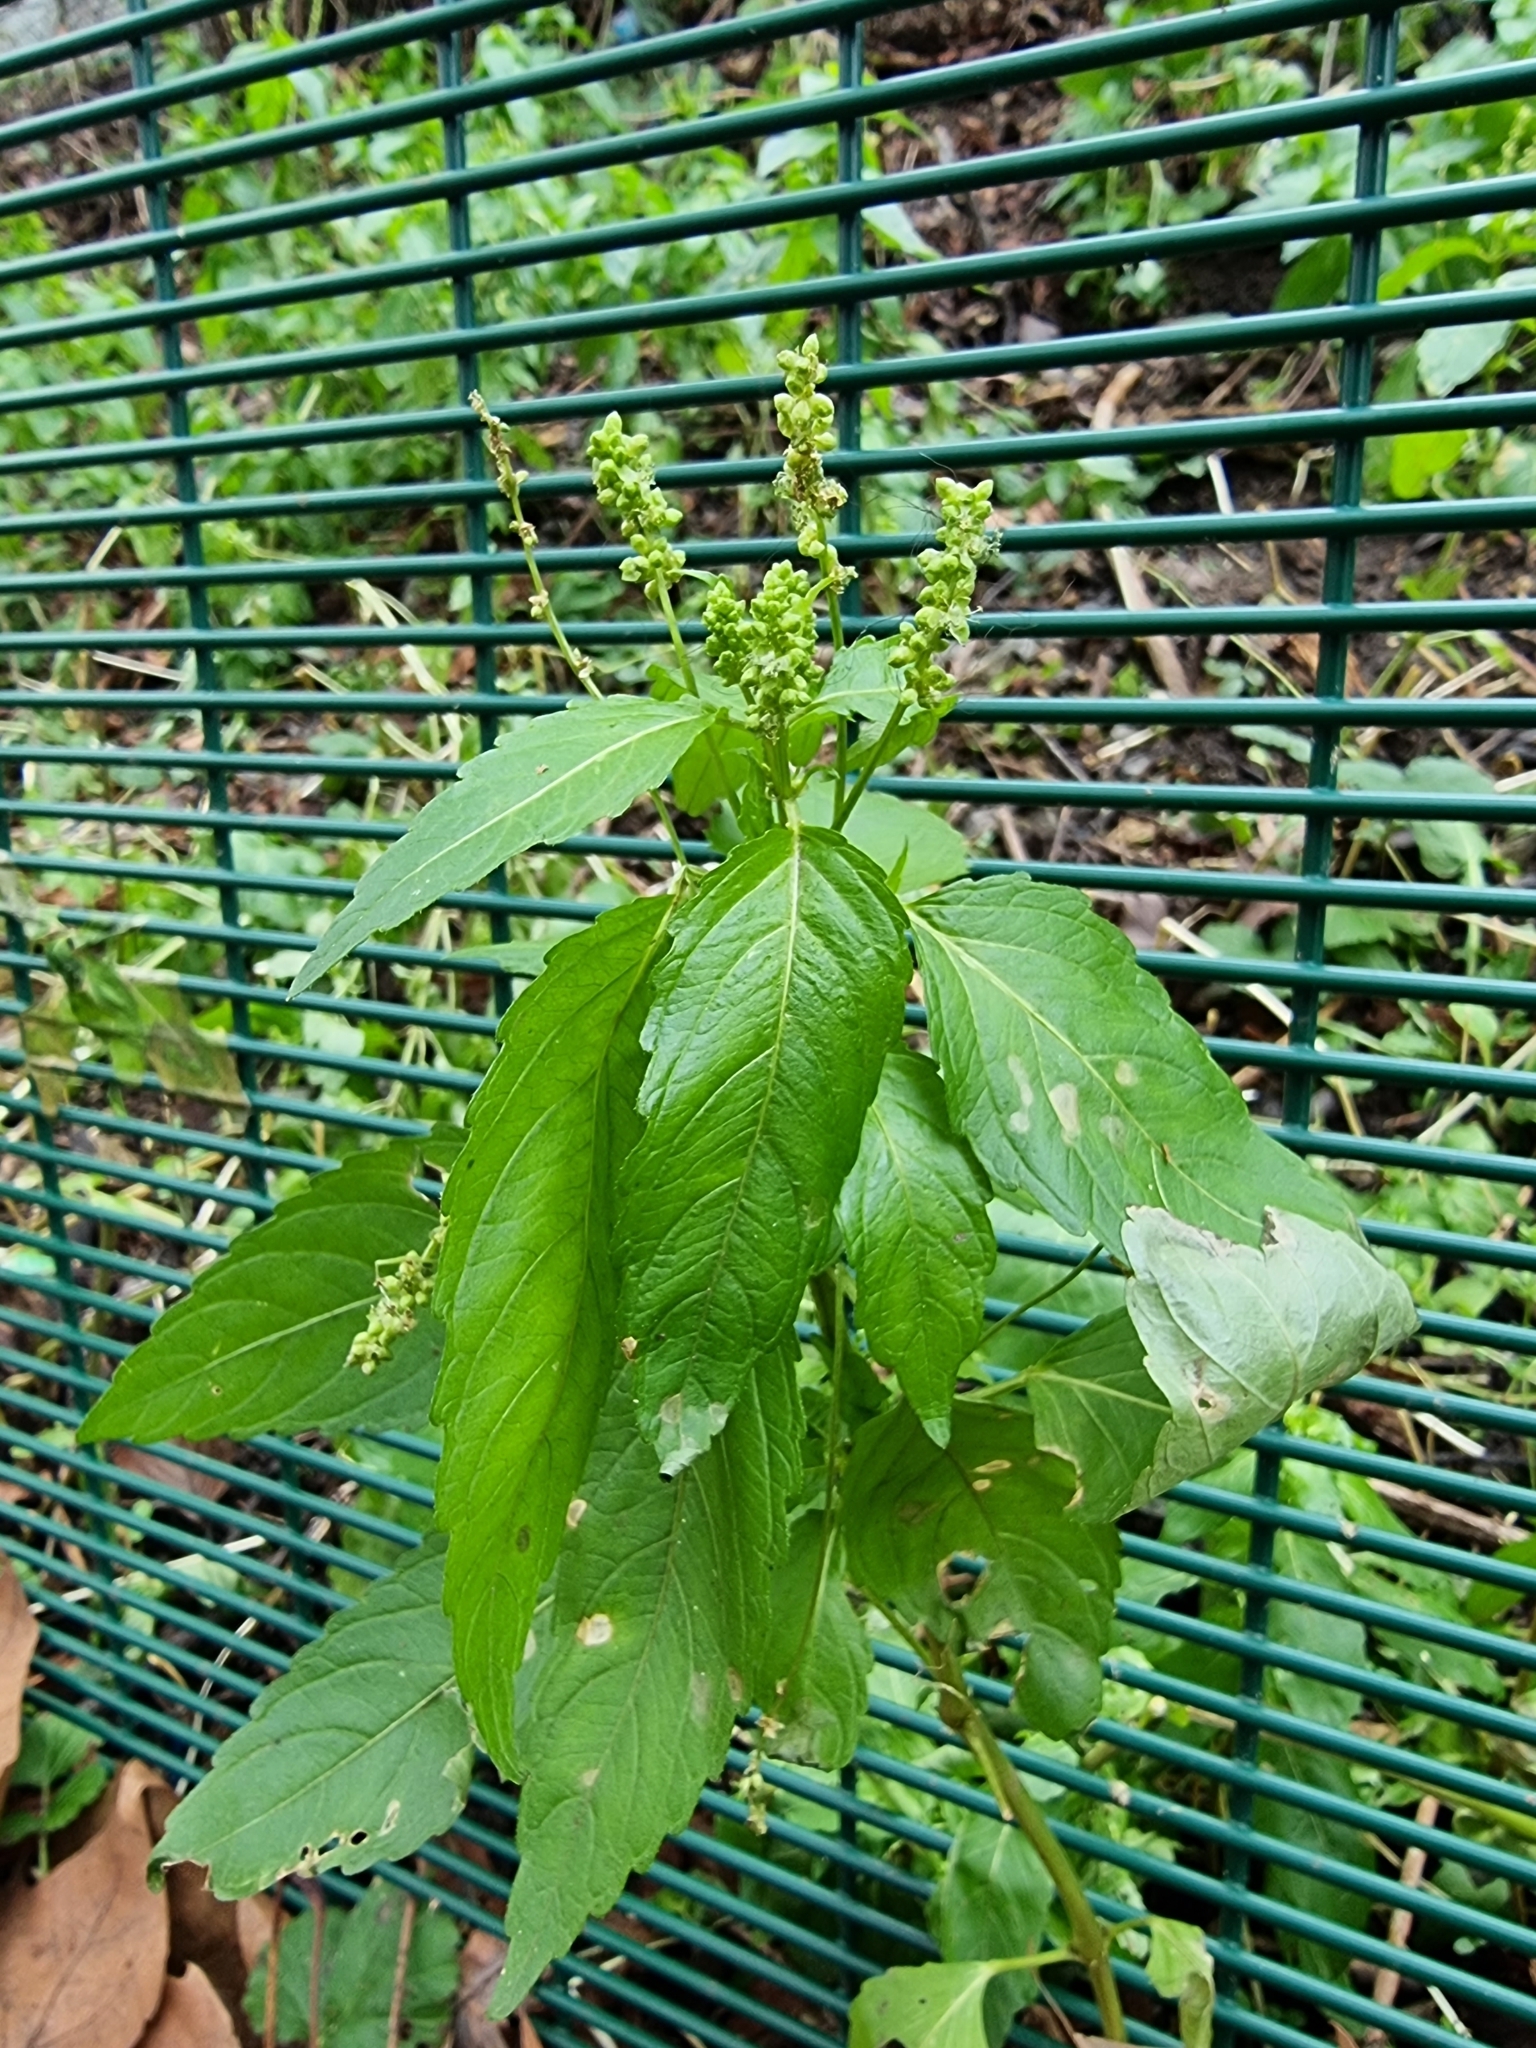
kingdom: Plantae
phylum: Tracheophyta
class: Magnoliopsida
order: Malpighiales
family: Euphorbiaceae
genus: Mercurialis
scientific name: Mercurialis annua
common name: Annual mercury
